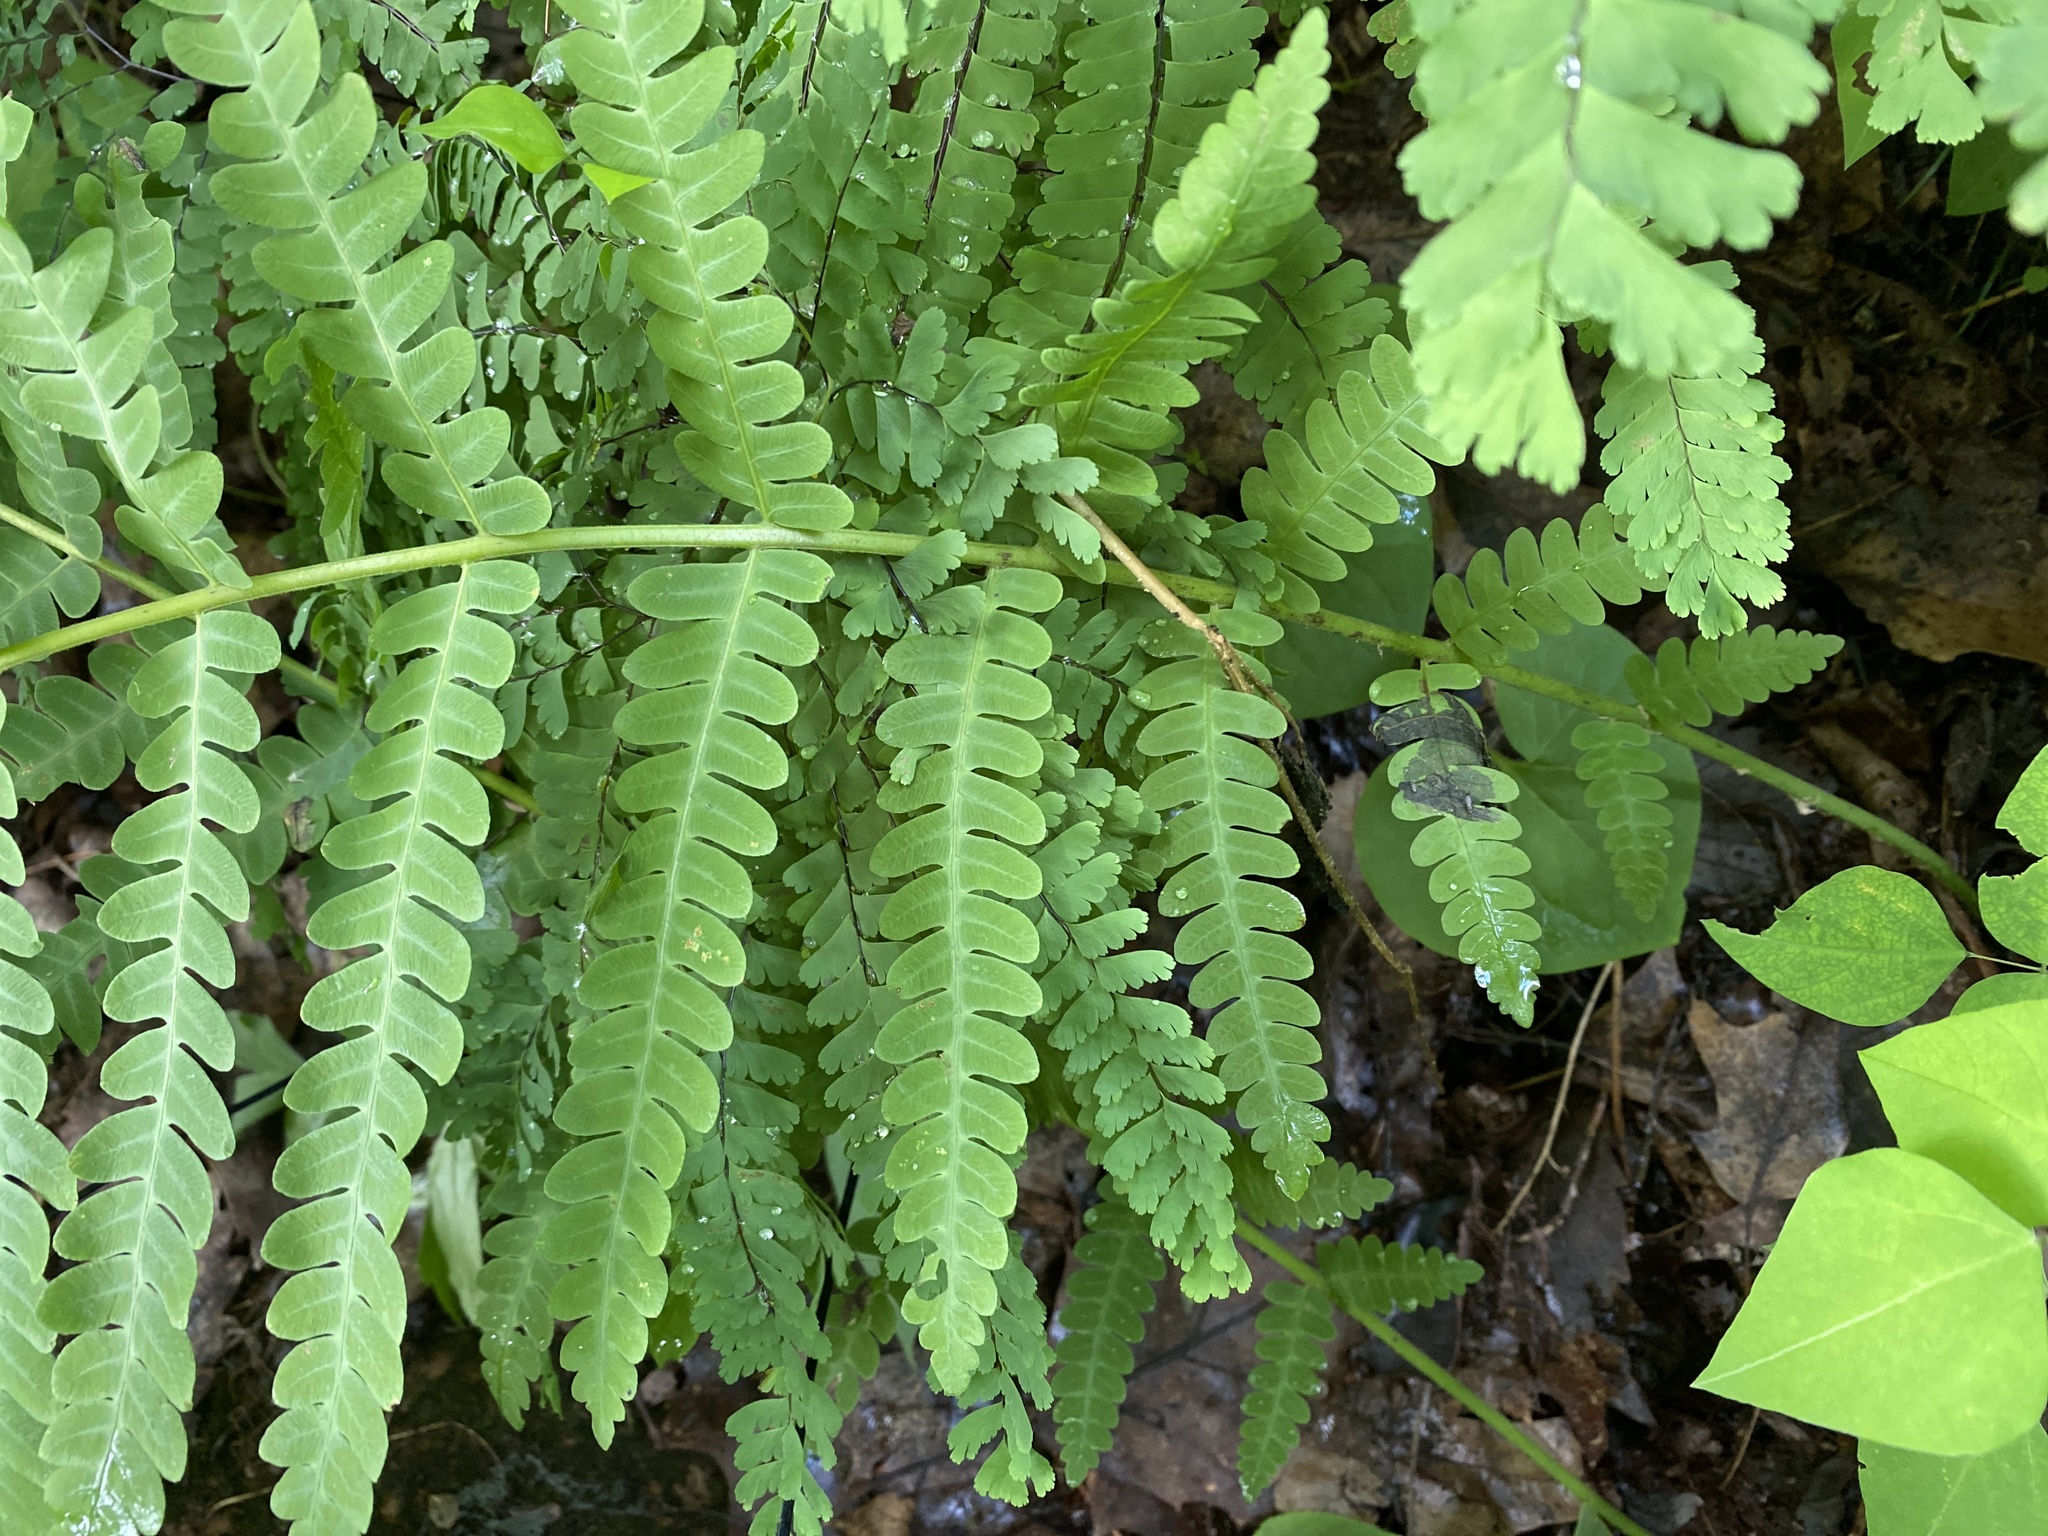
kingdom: Plantae
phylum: Tracheophyta
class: Polypodiopsida
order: Osmundales
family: Osmundaceae
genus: Claytosmunda
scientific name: Claytosmunda claytoniana
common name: Clayton's fern
